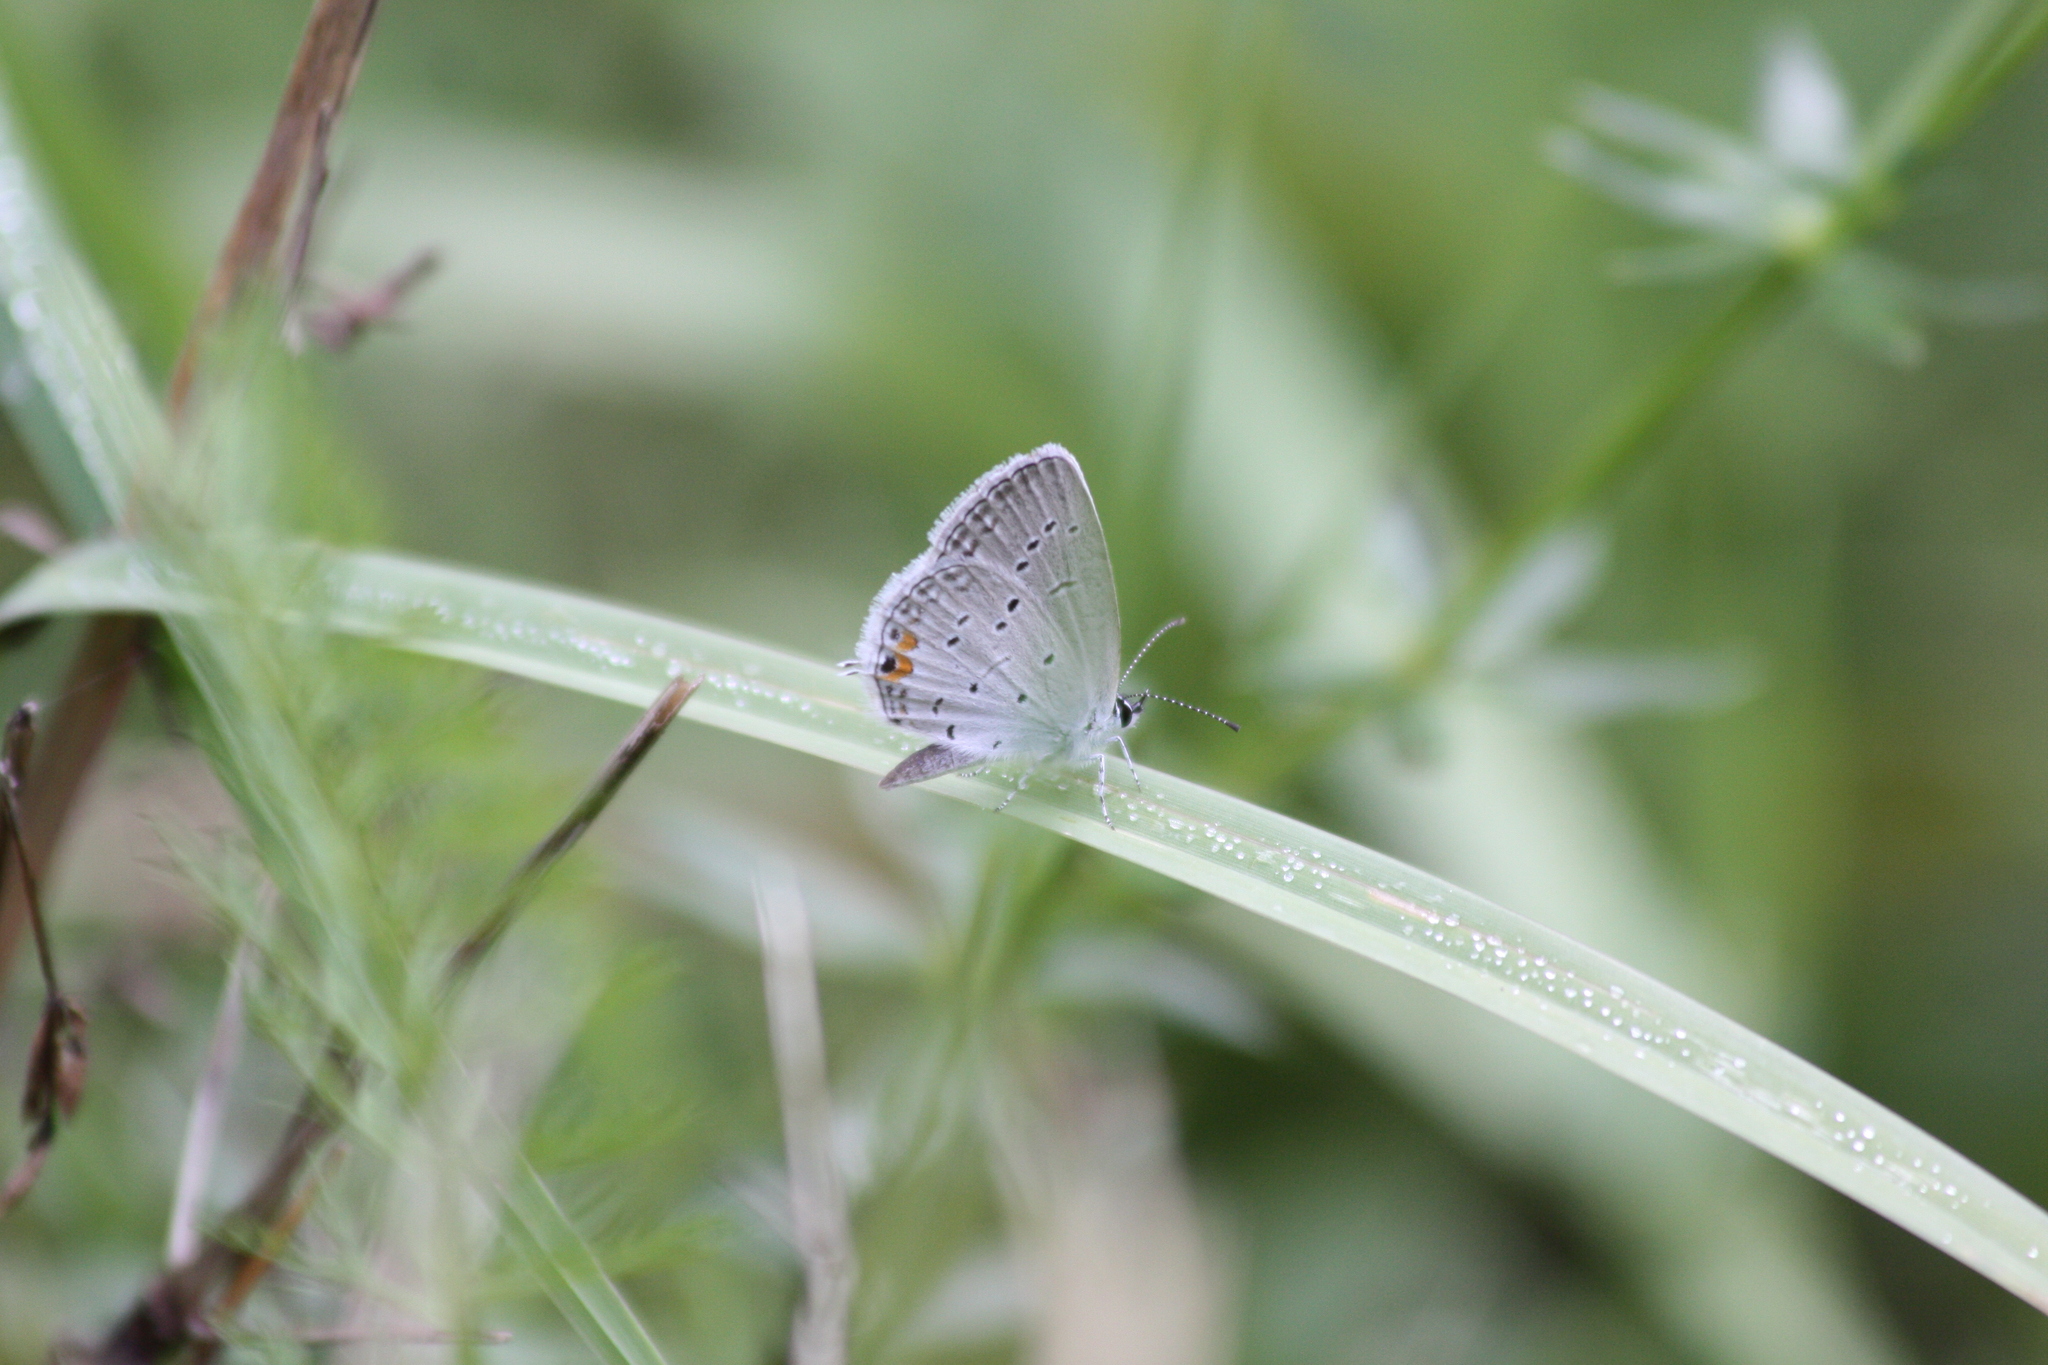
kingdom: Animalia
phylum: Arthropoda
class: Insecta
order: Lepidoptera
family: Lycaenidae
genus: Elkalyce
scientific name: Elkalyce comyntas
